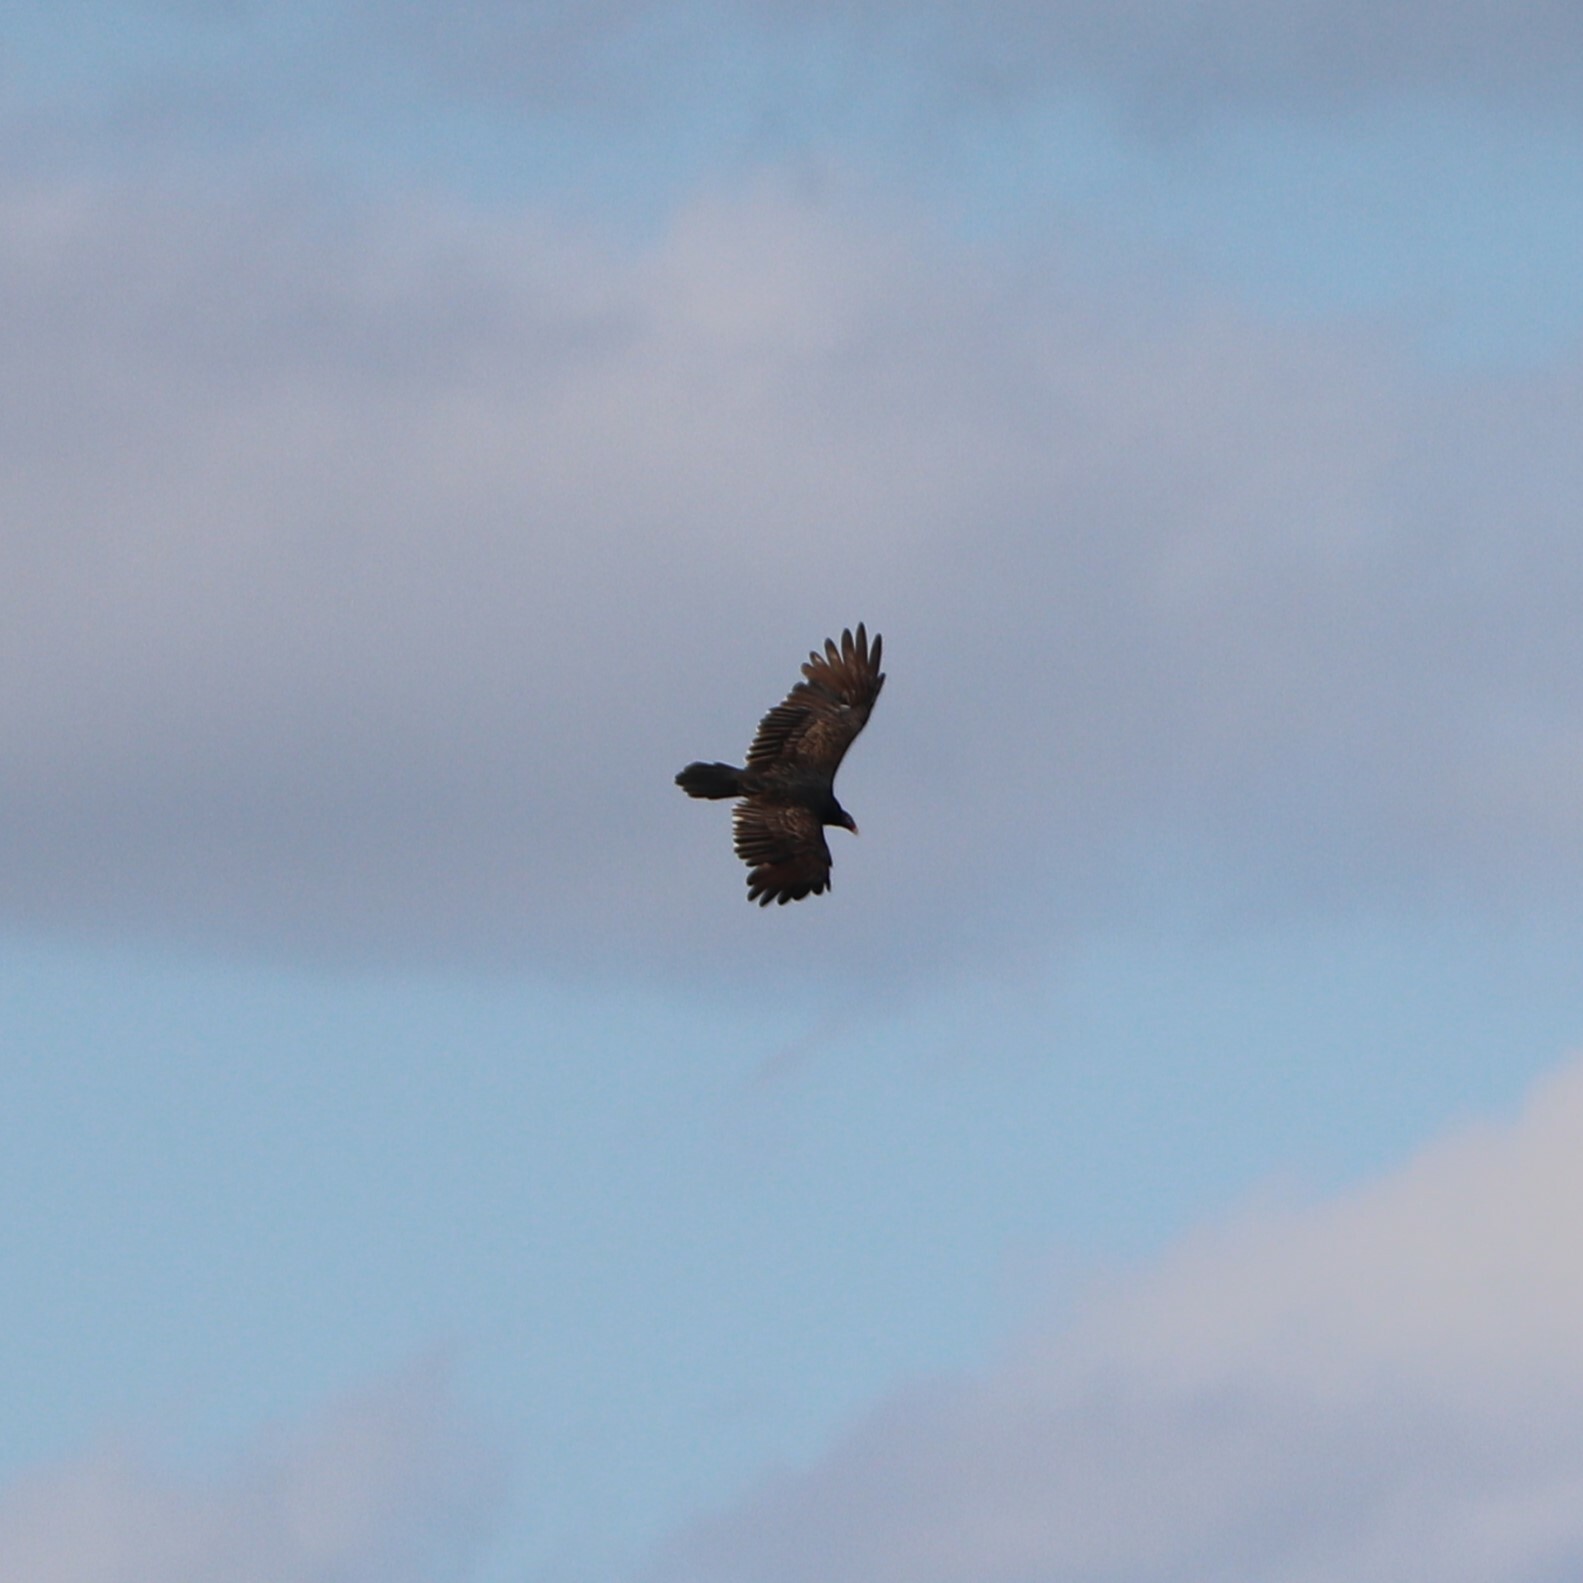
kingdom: Animalia
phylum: Chordata
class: Aves
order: Accipitriformes
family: Cathartidae
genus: Cathartes
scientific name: Cathartes aura
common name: Turkey vulture
